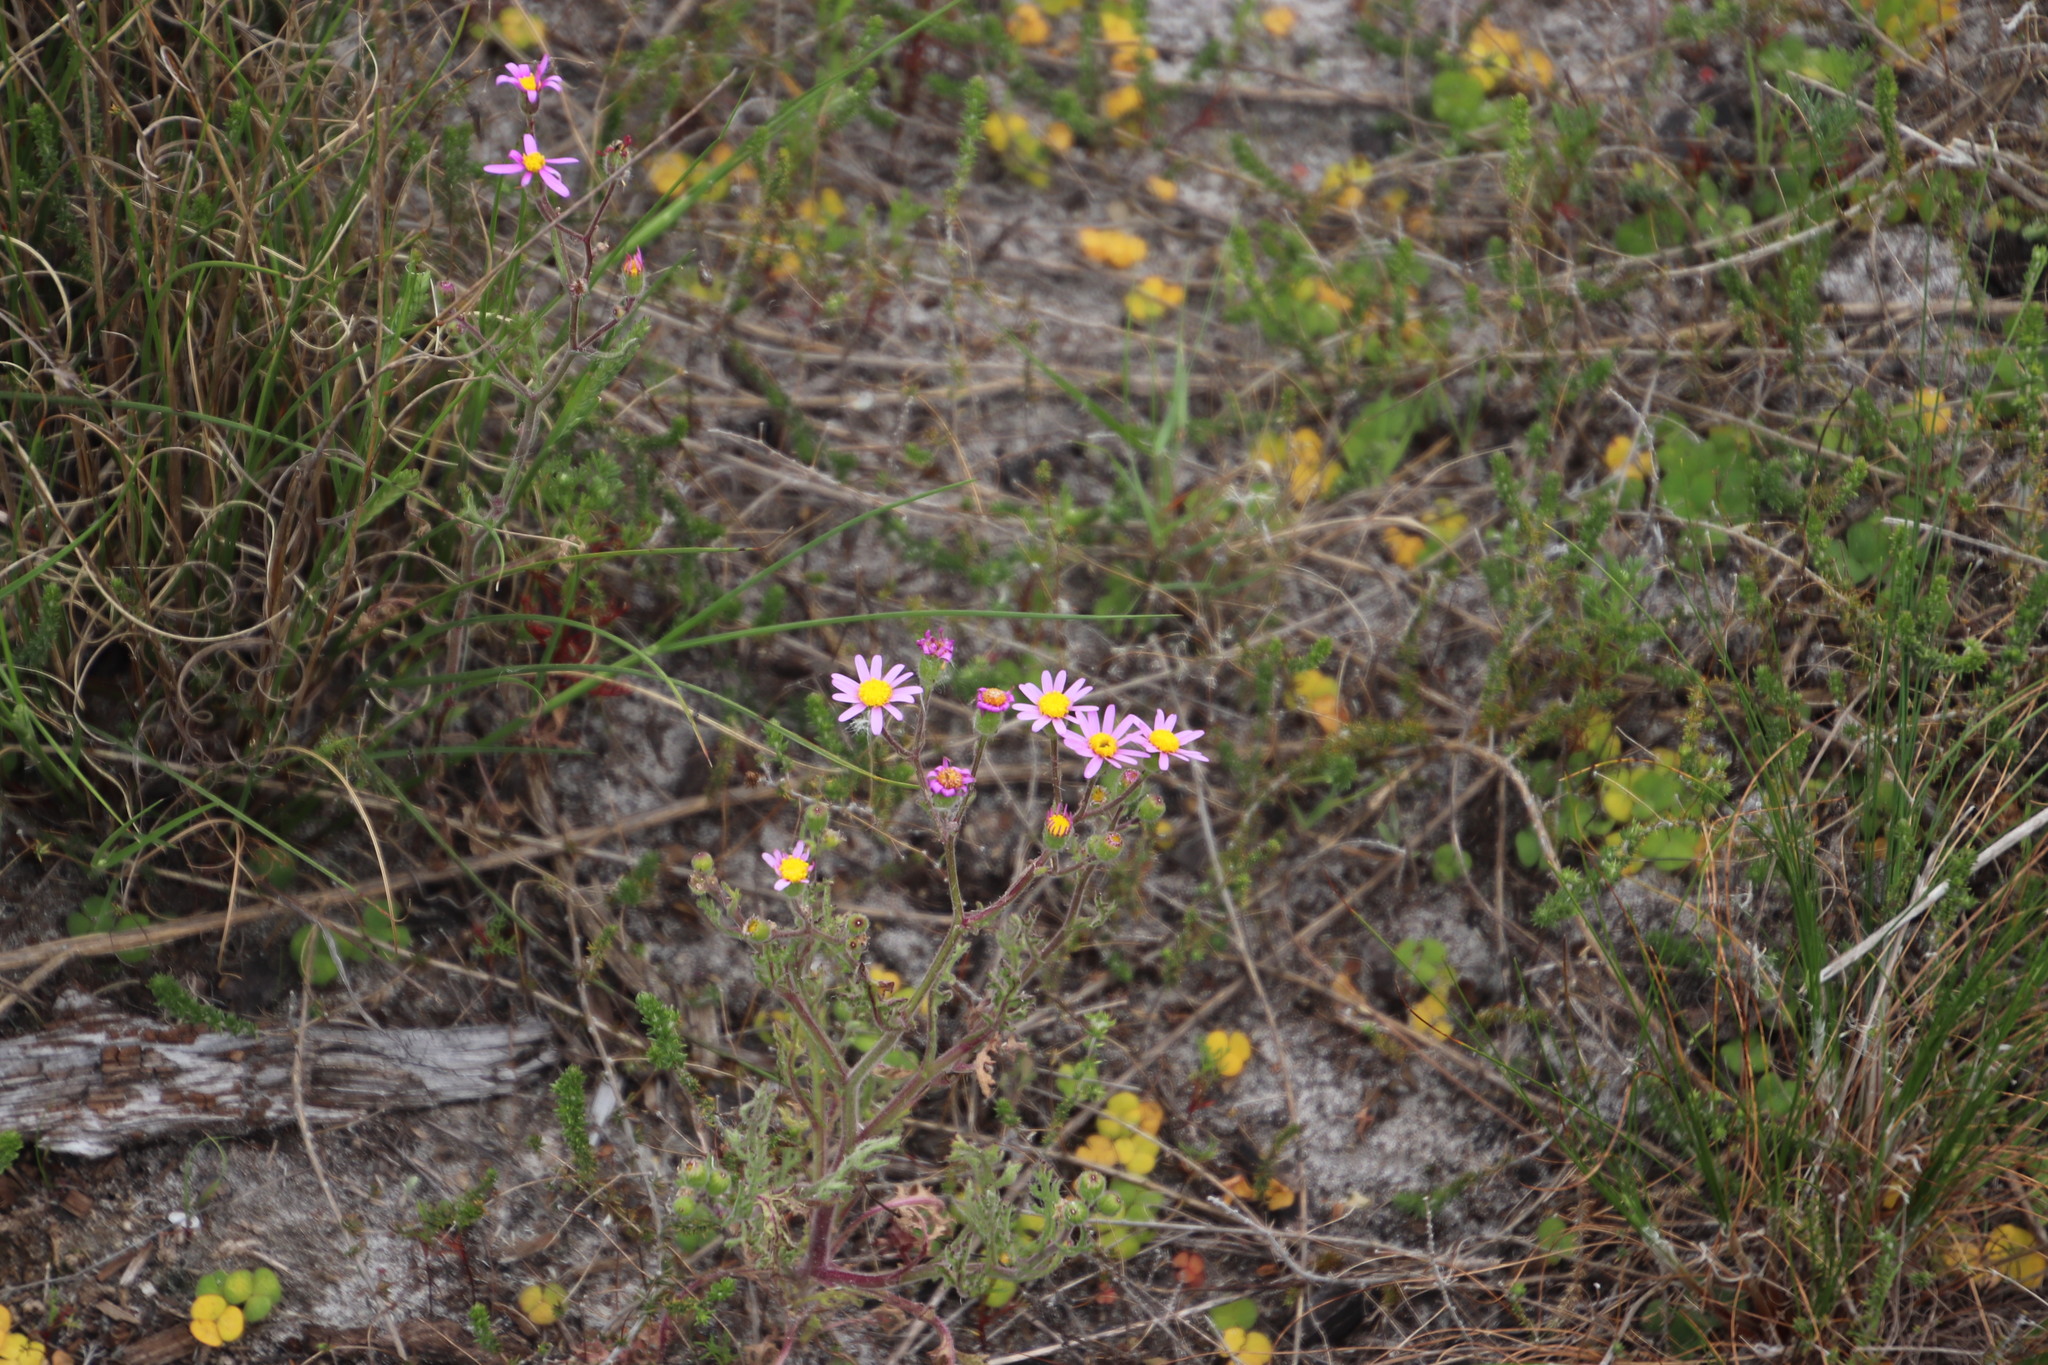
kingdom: Plantae
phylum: Tracheophyta
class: Magnoliopsida
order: Asterales
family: Asteraceae
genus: Senecio
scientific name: Senecio arenarius
